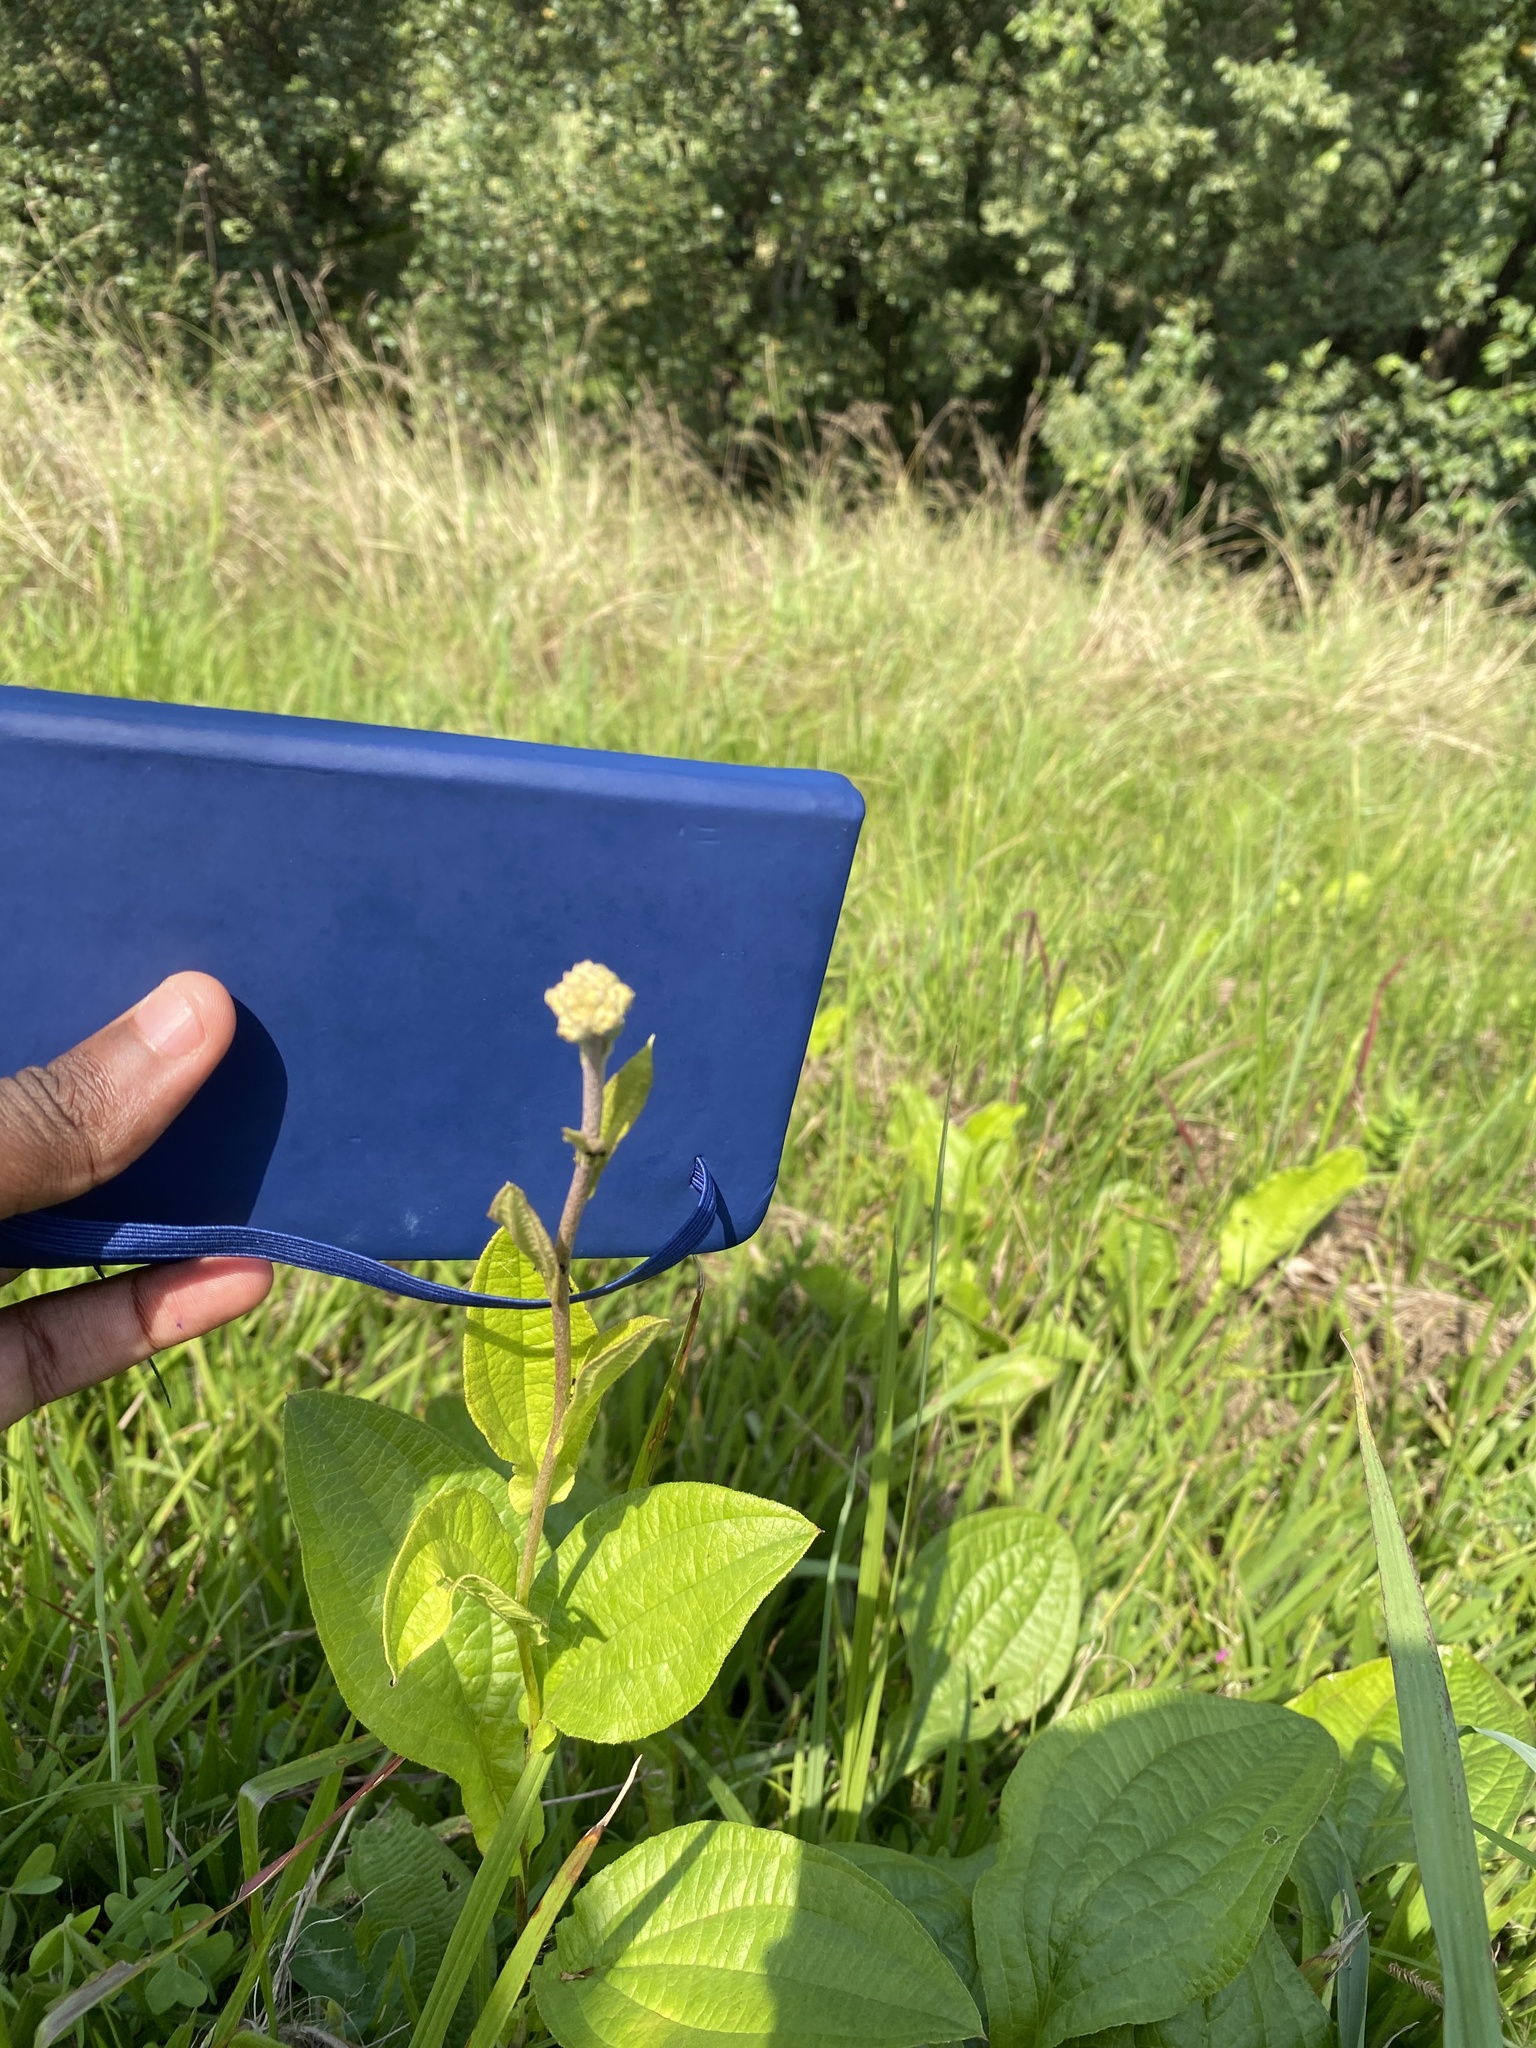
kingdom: Plantae
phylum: Tracheophyta
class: Magnoliopsida
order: Asterales
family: Asteraceae
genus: Helichrysum
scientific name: Helichrysum nudifolium
